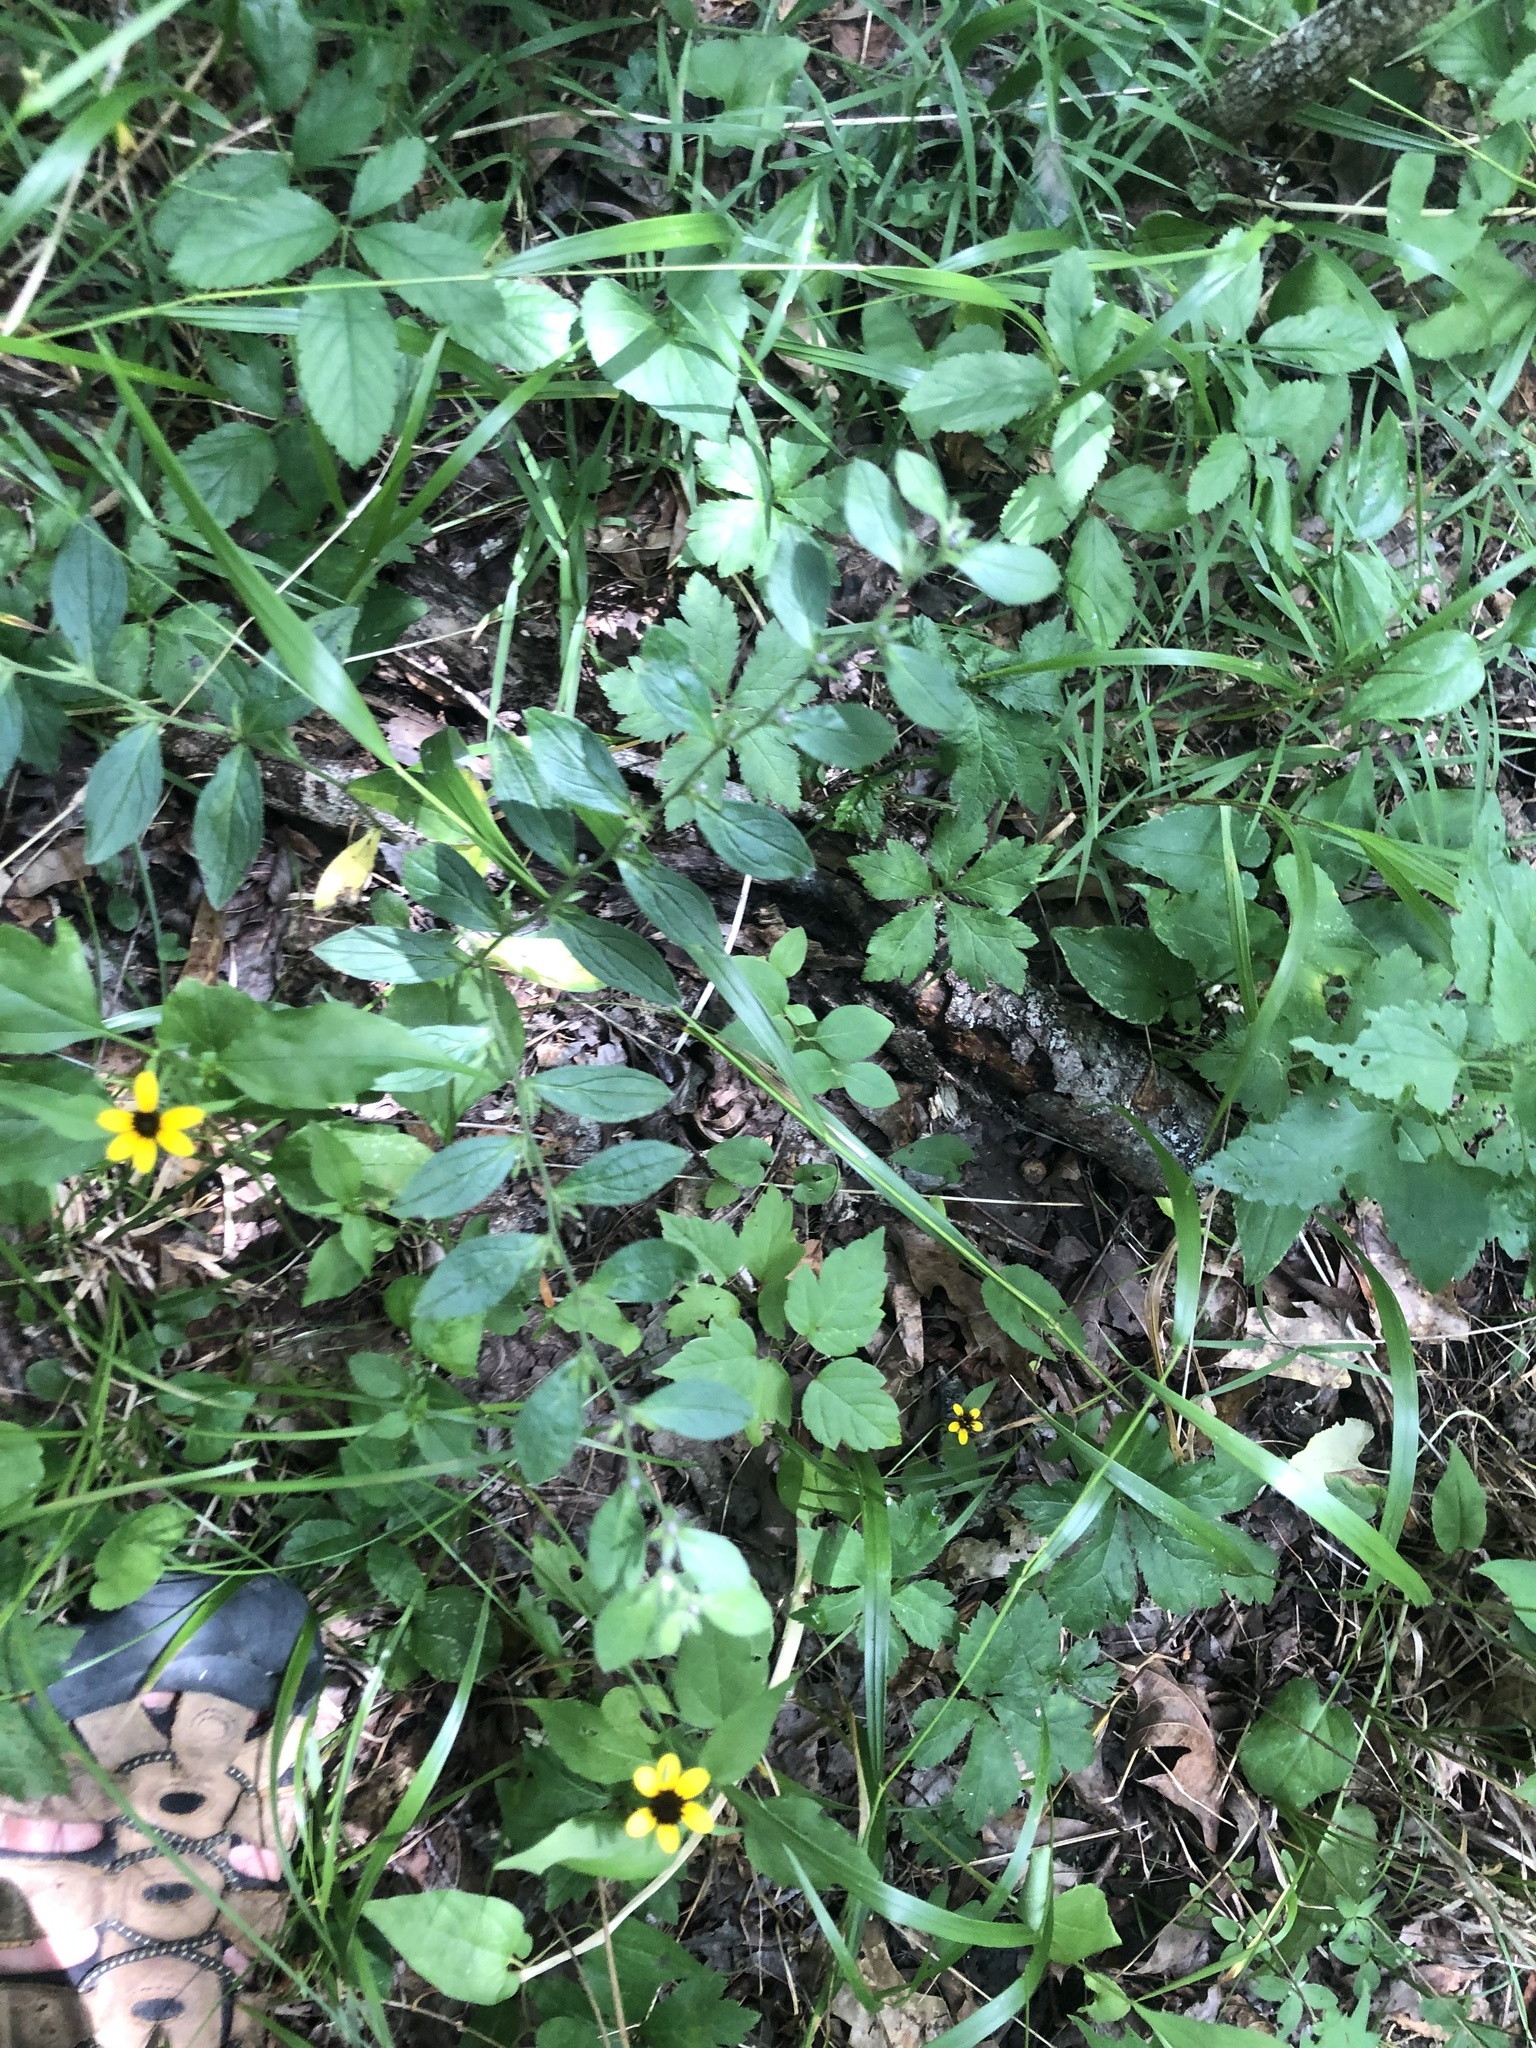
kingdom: Plantae
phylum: Tracheophyta
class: Magnoliopsida
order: Boraginales
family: Boraginaceae
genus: Lithospermum
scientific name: Lithospermum tuberosum
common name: Southern stoneseed
